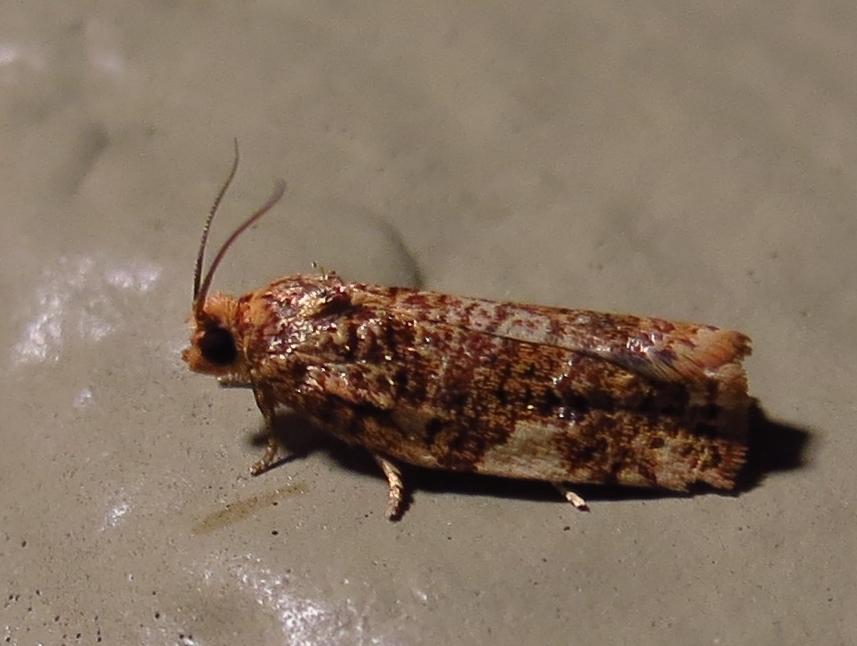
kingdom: Animalia
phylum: Arthropoda
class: Insecta
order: Lepidoptera
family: Tortricidae
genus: Archips
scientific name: Archips argyrospila
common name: Fruit-tree leafroller moth
